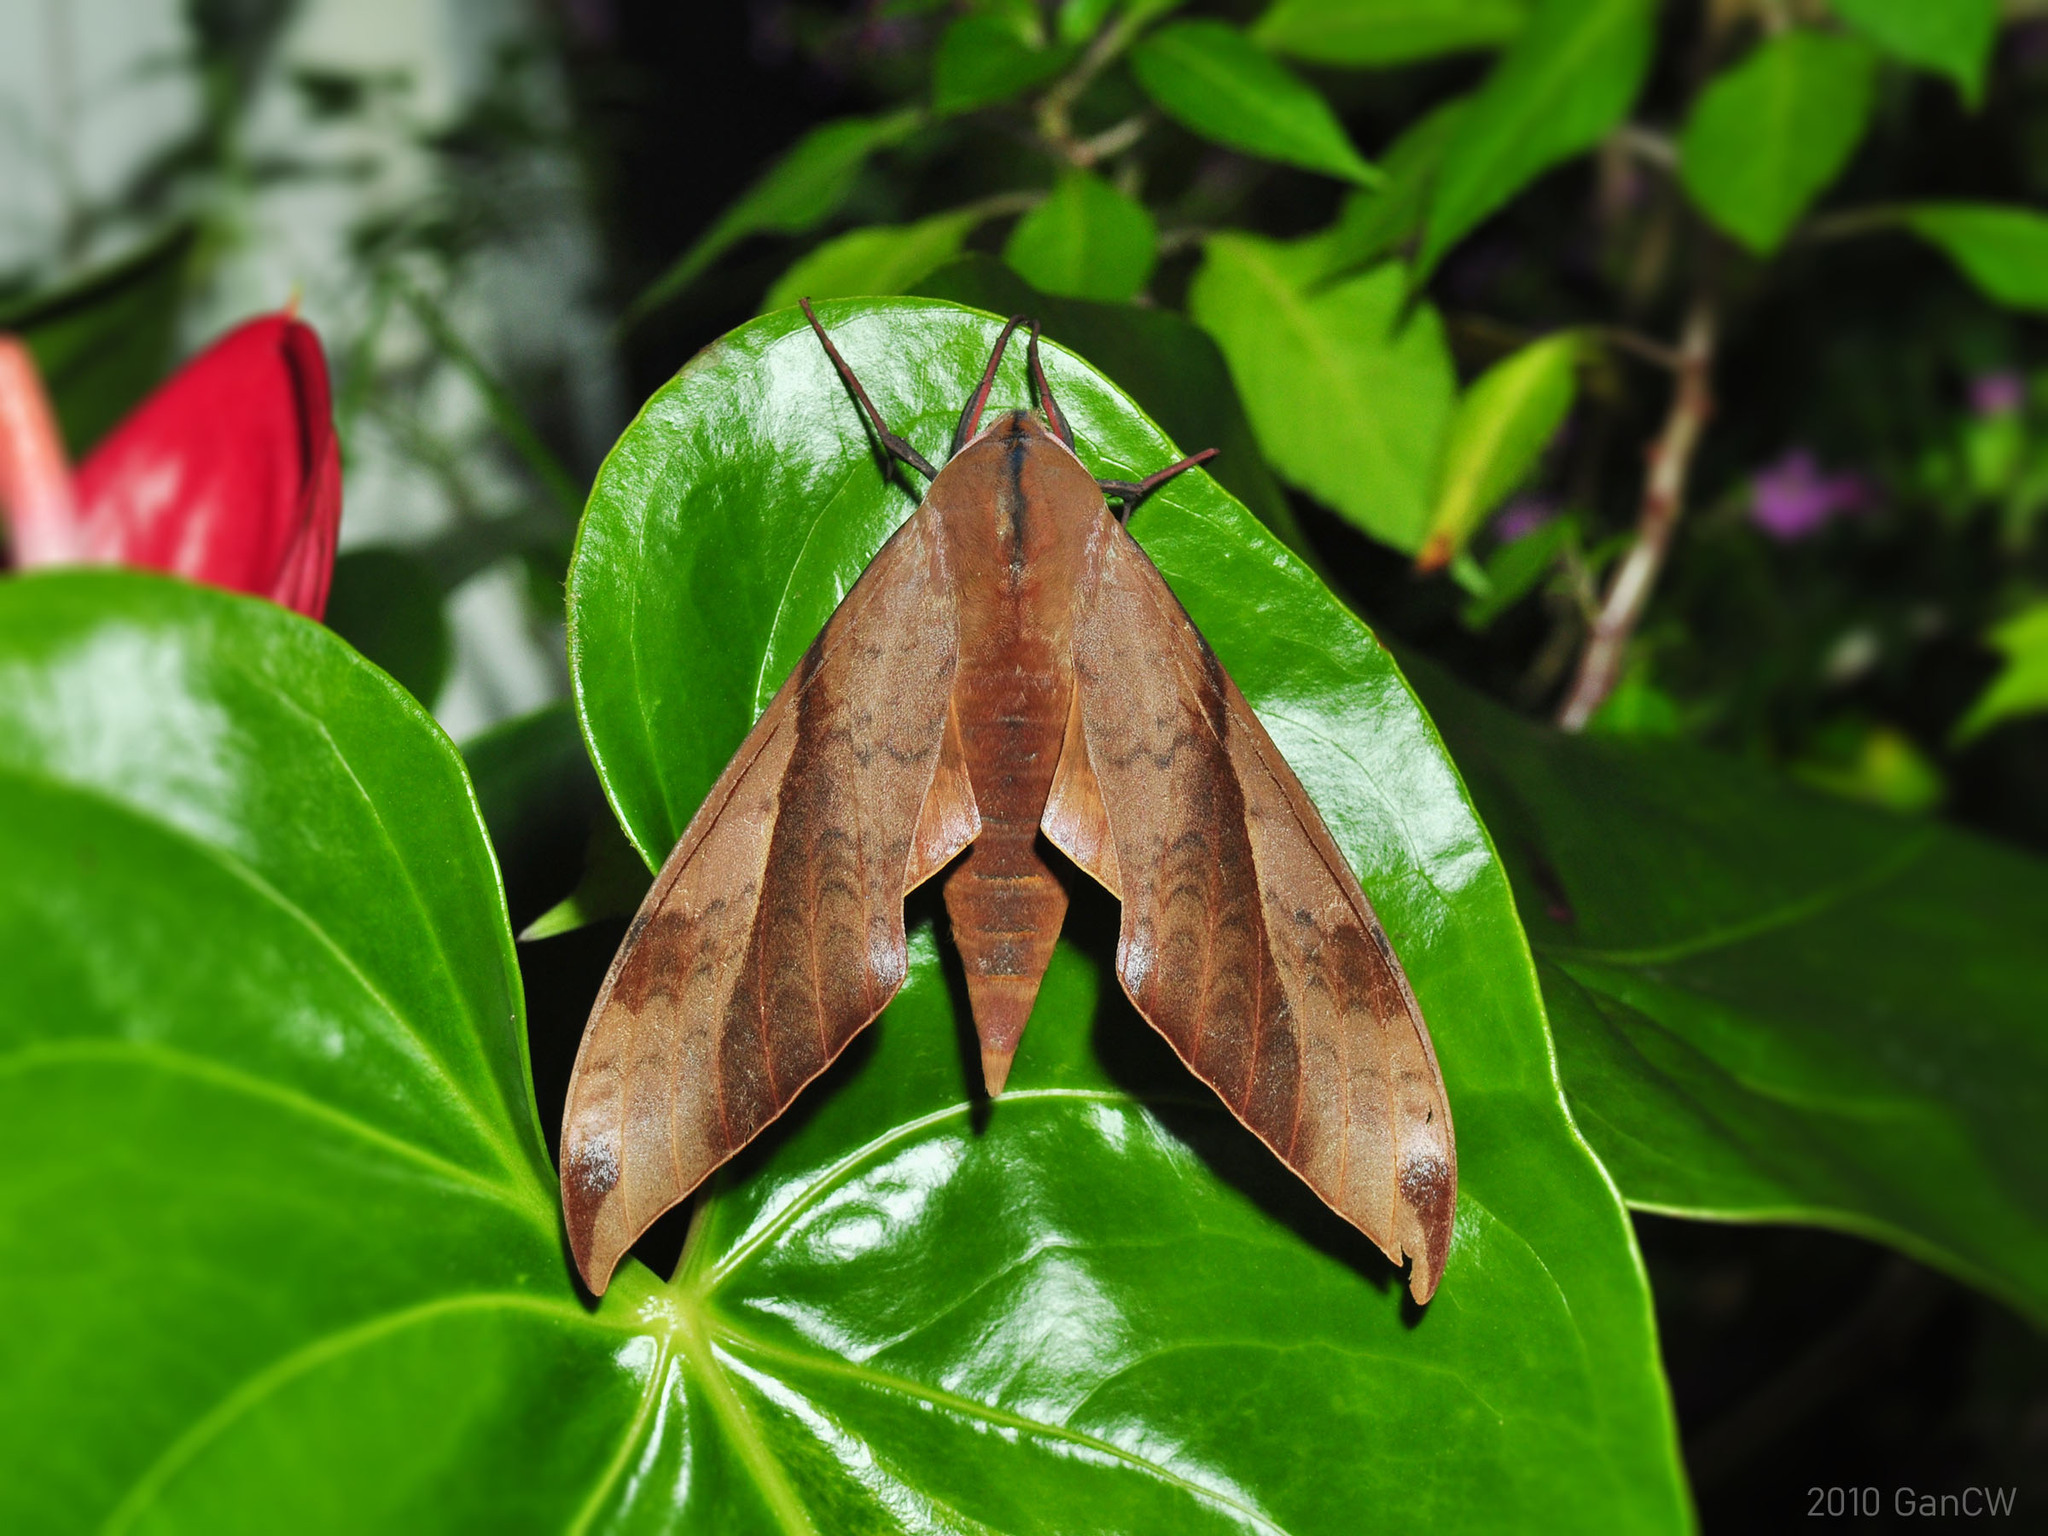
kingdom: Animalia
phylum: Arthropoda
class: Insecta
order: Lepidoptera
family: Sphingidae
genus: Clanis
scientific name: Clanis undulosa
